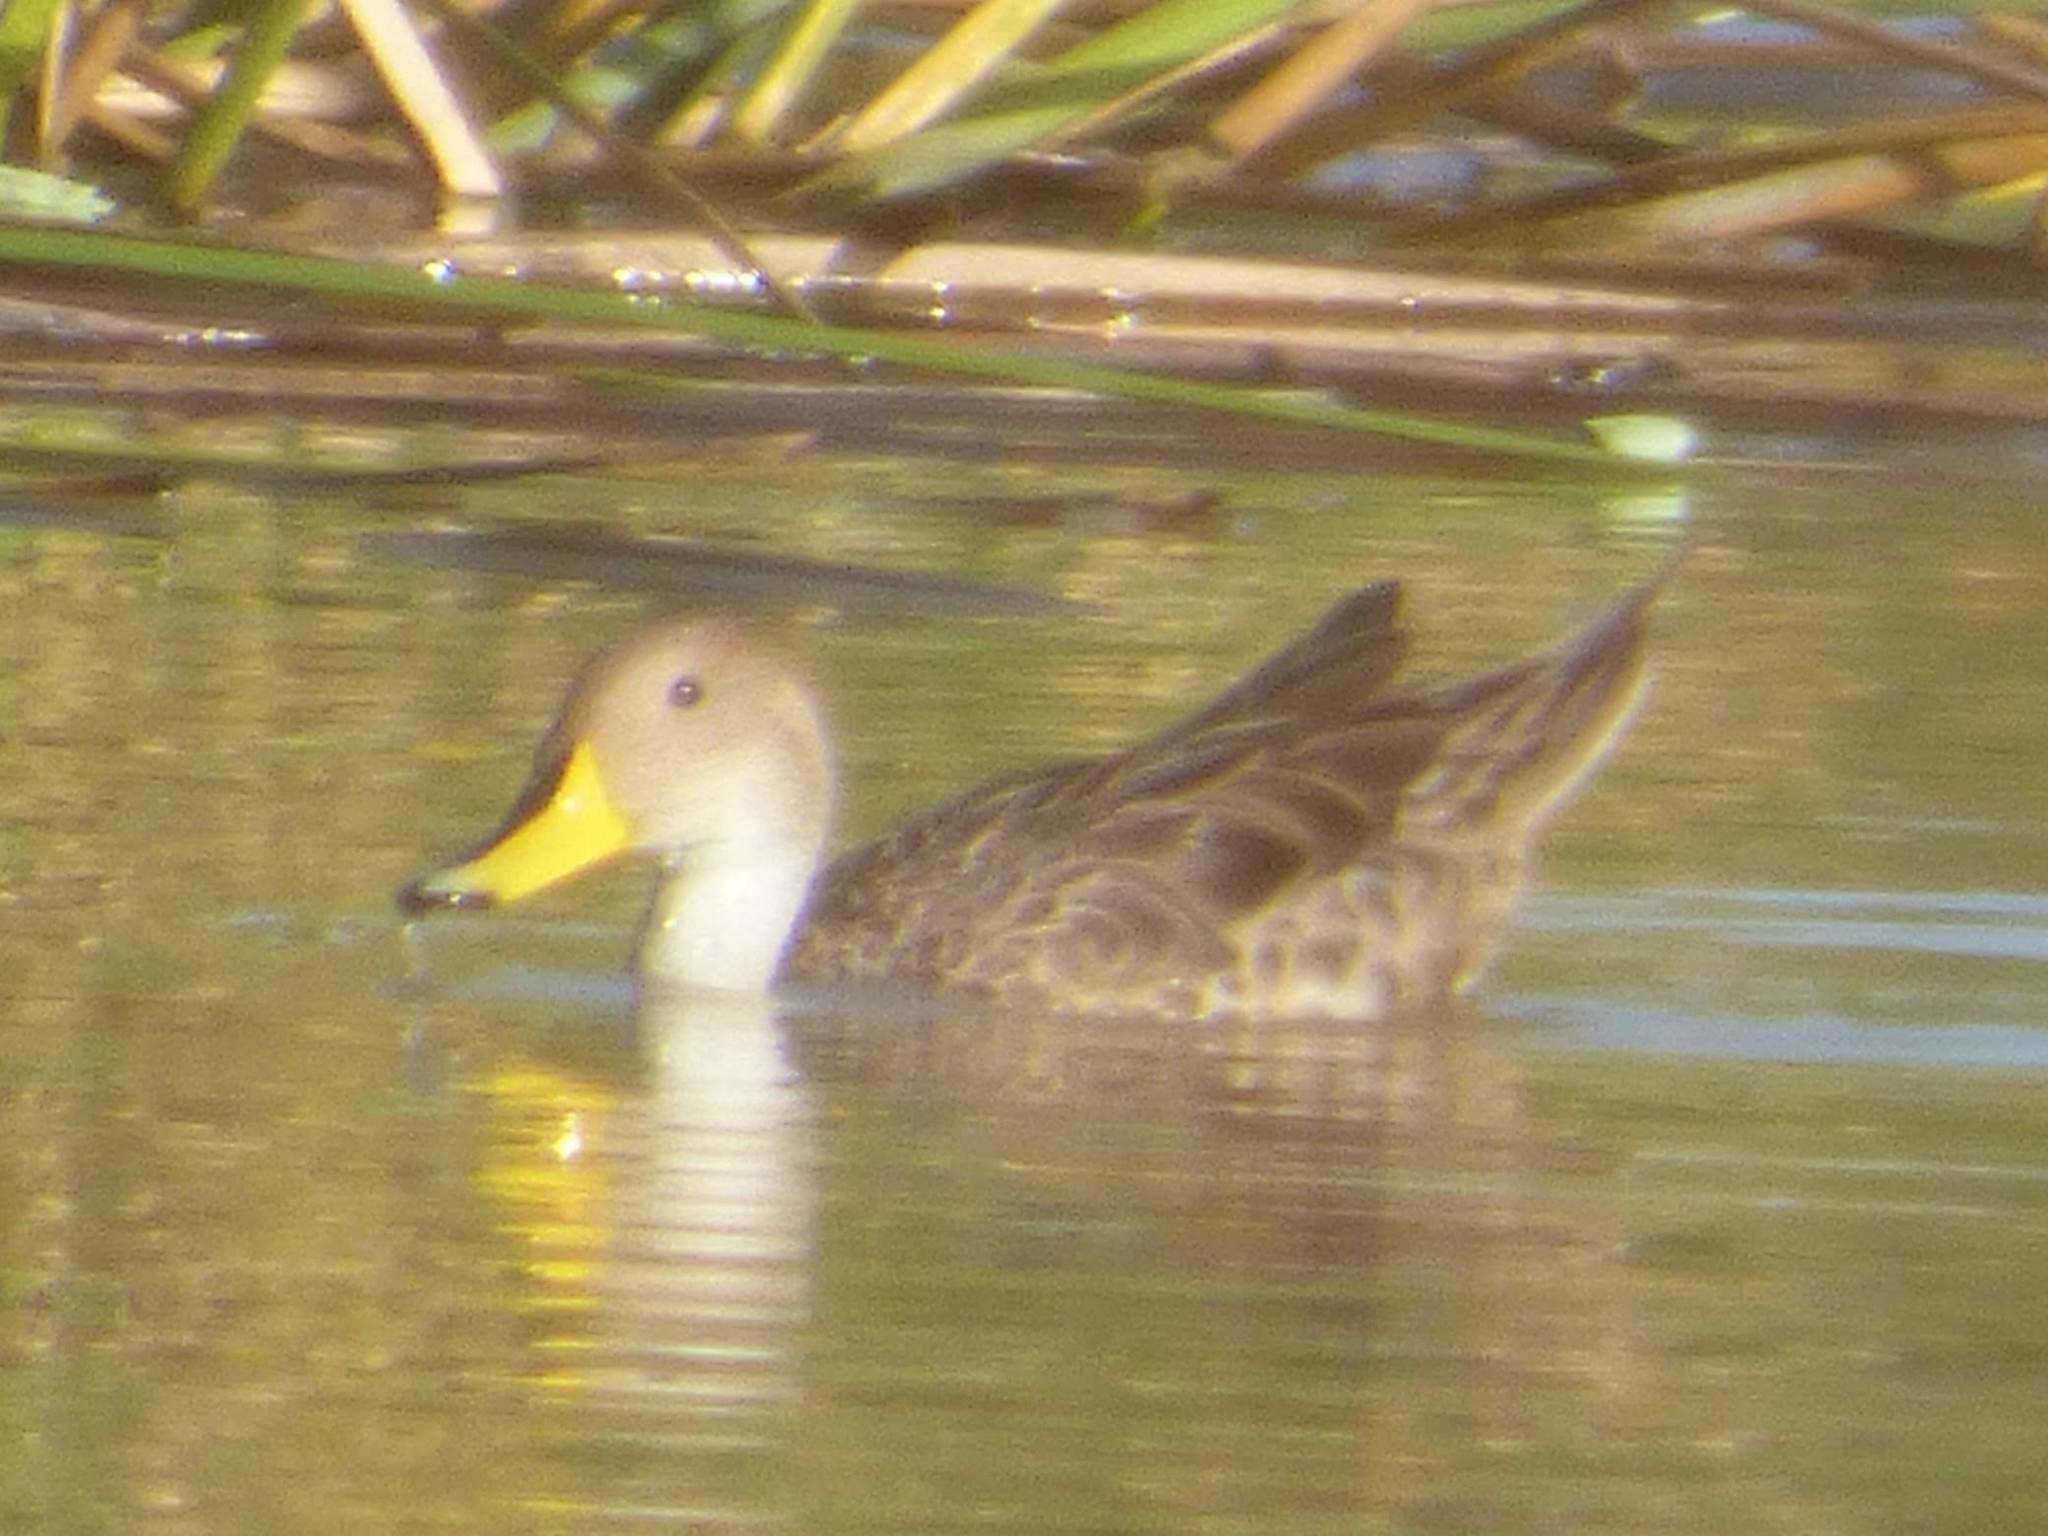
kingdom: Animalia
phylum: Chordata
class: Aves
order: Anseriformes
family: Anatidae
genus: Anas
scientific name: Anas georgica
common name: Yellow-billed pintail
